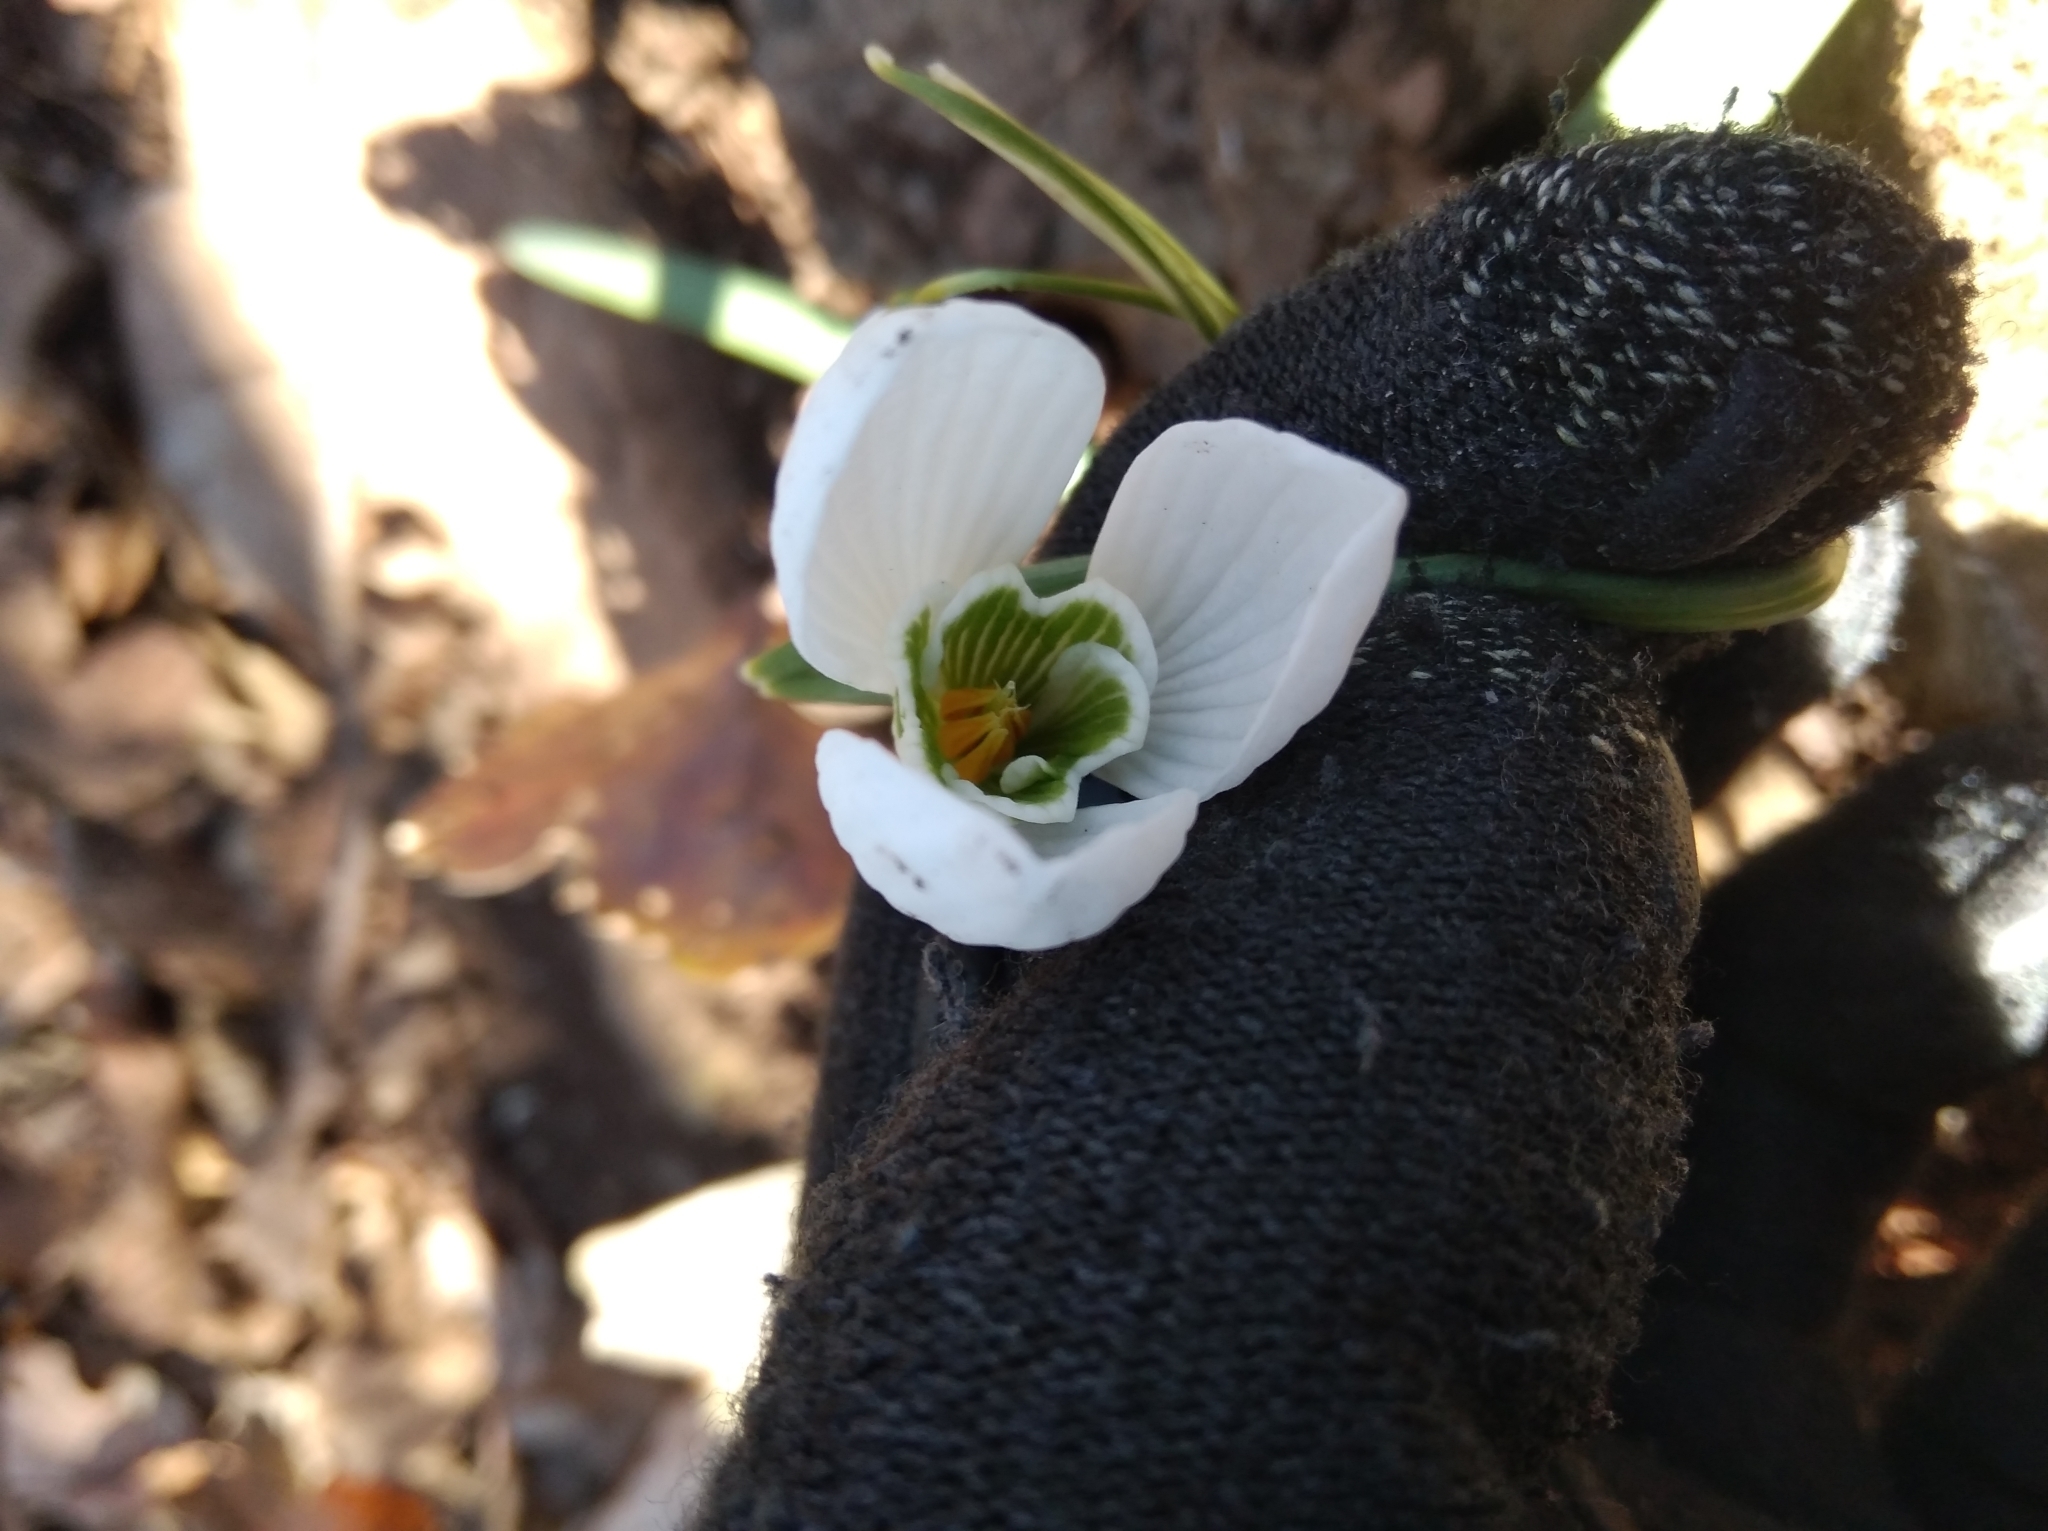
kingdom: Plantae
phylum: Tracheophyta
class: Liliopsida
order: Asparagales
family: Amaryllidaceae
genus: Galanthus
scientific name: Galanthus nivalis
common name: Snowdrop
